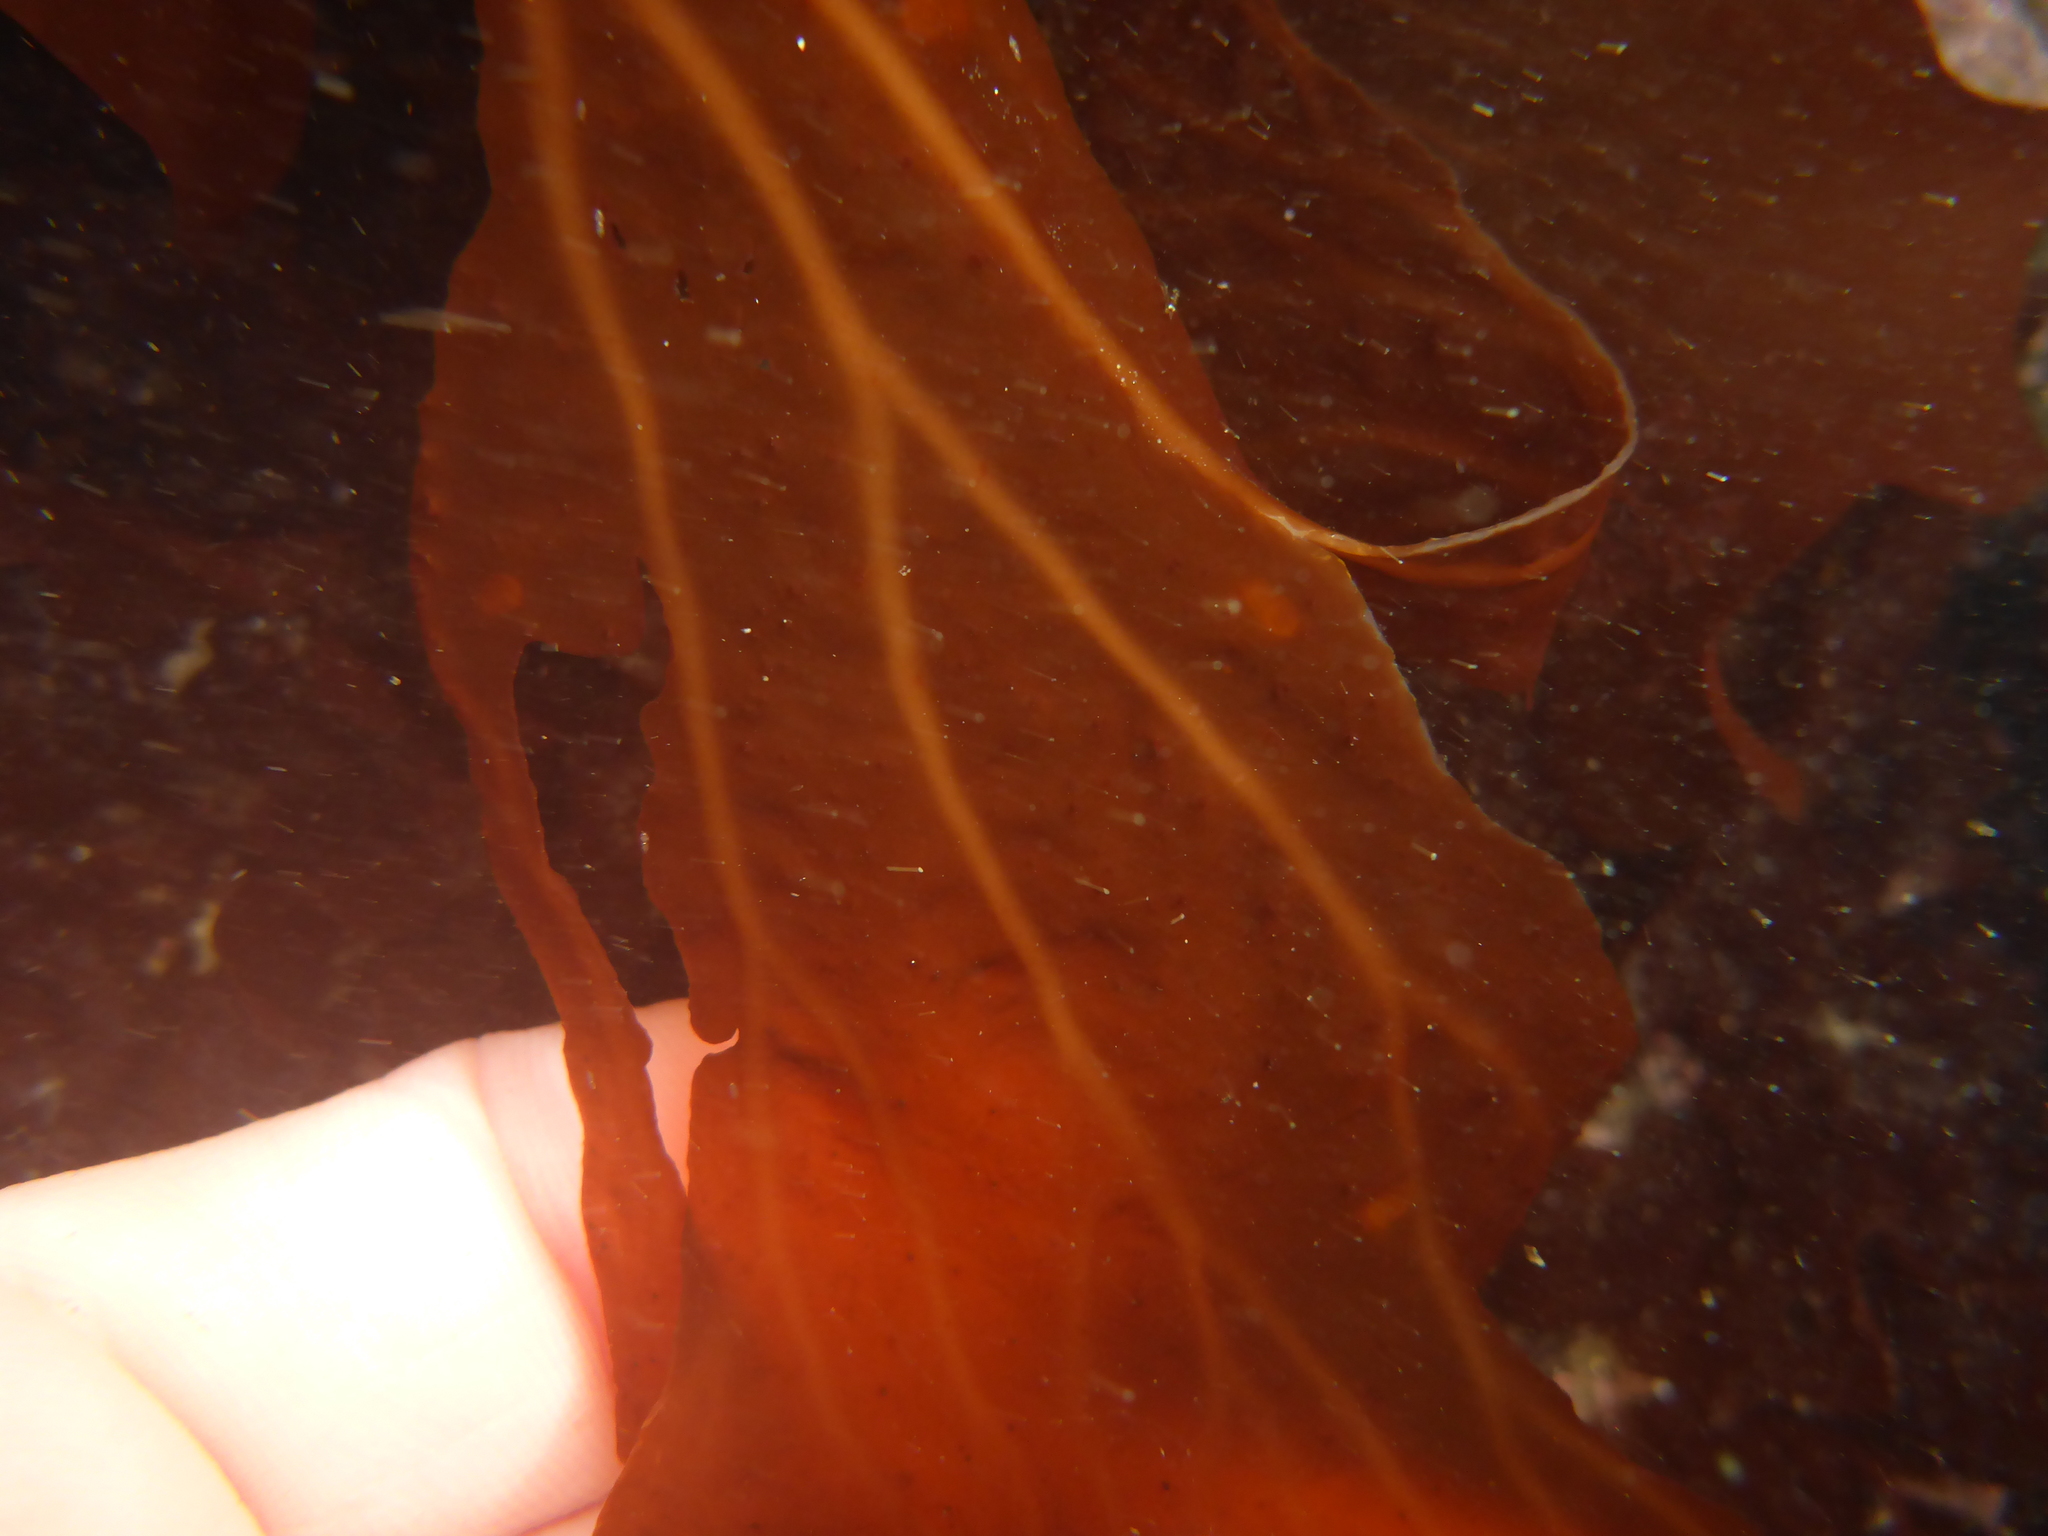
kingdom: Plantae
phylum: Rhodophyta
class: Florideophyceae
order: Gigartinales
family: Kallymeniaceae
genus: Erythrophyllum
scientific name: Erythrophyllum delesserioides
